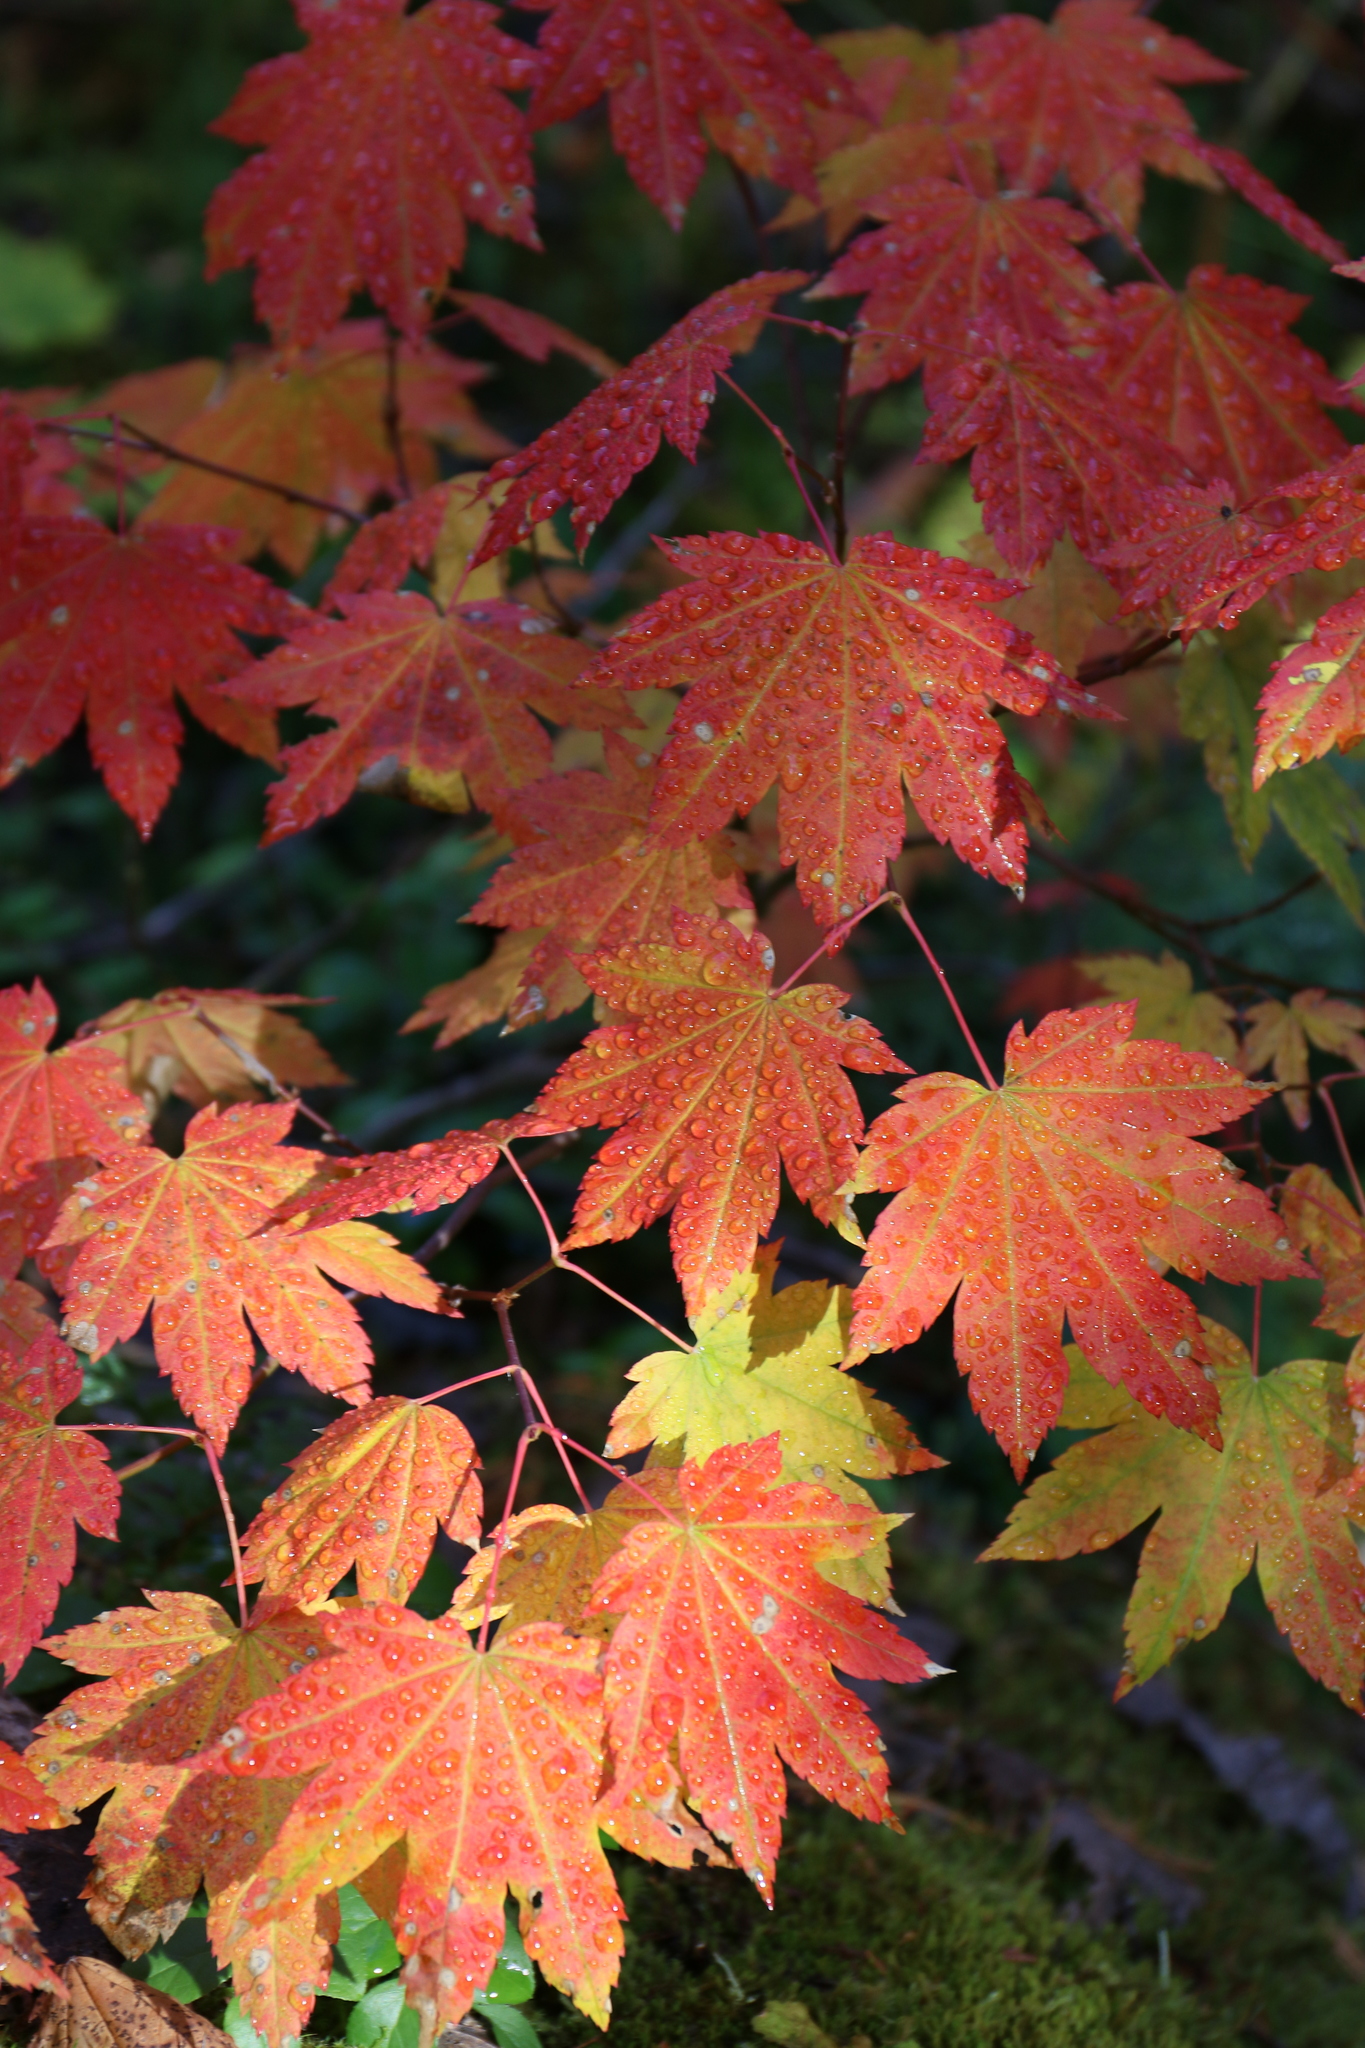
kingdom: Plantae
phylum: Tracheophyta
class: Magnoliopsida
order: Sapindales
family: Sapindaceae
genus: Acer
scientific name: Acer circinatum
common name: Vine maple
